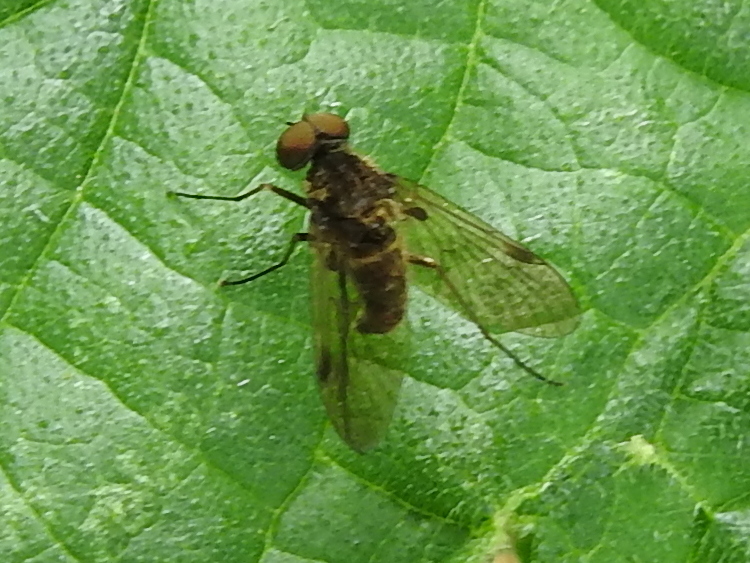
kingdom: Animalia
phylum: Arthropoda
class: Insecta
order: Diptera
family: Rhagionidae
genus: Chrysopilus
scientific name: Chrysopilus cristatus
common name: Black snipefly
